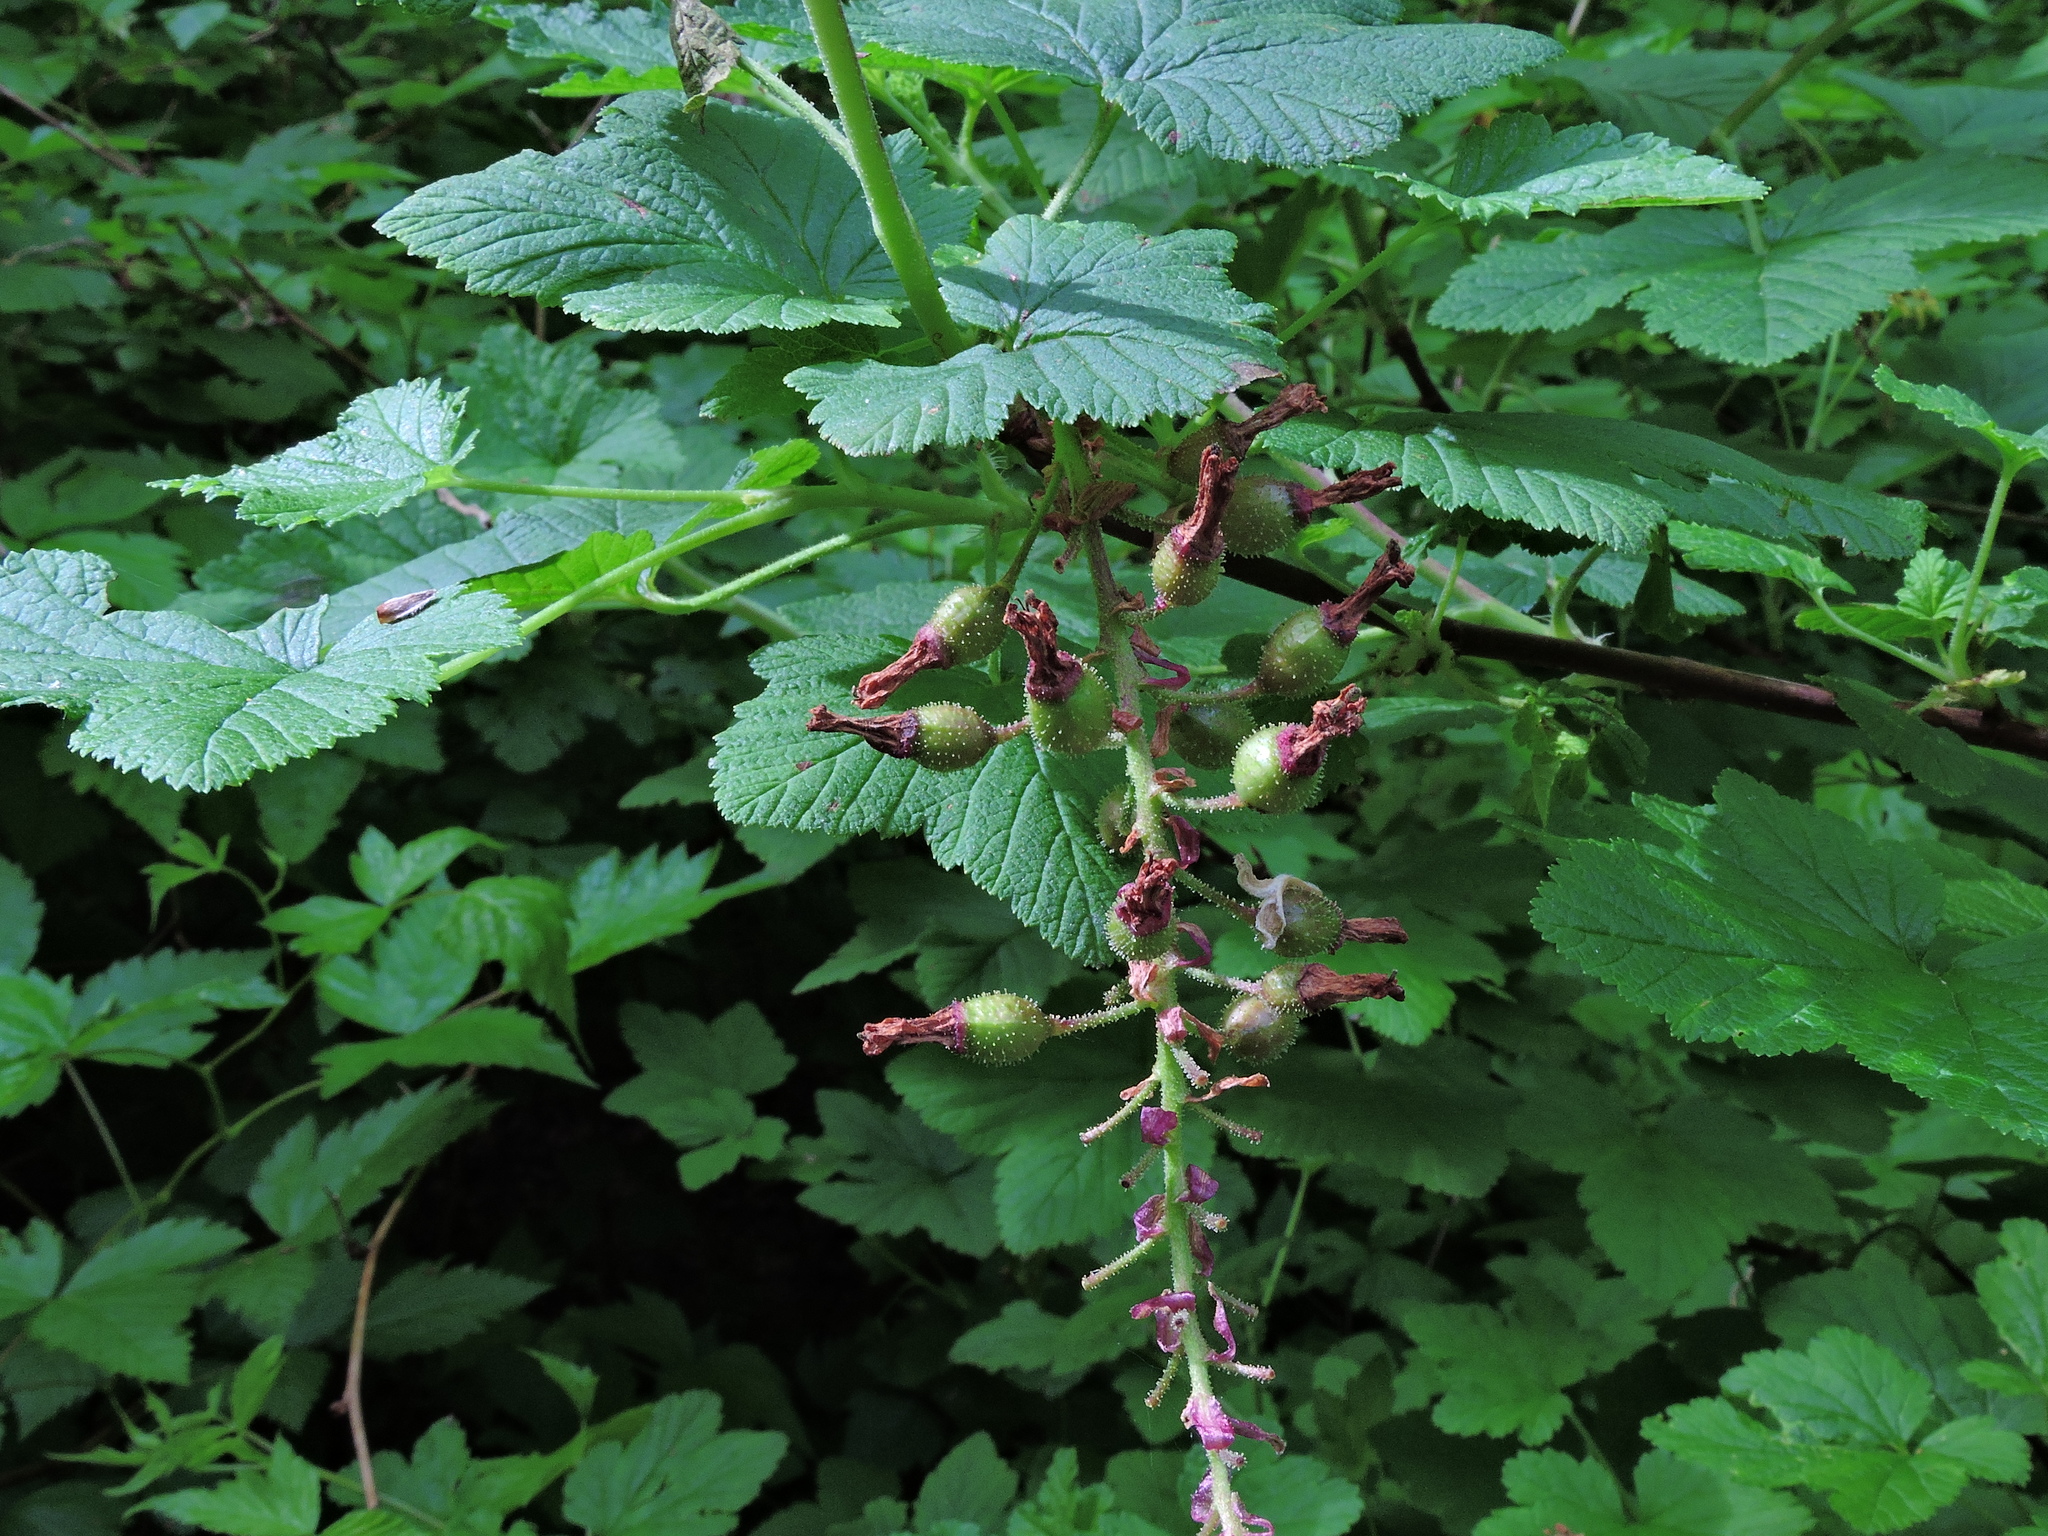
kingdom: Plantae
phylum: Tracheophyta
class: Magnoliopsida
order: Saxifragales
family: Grossulariaceae
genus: Ribes
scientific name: Ribes sanguineum
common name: Flowering currant
